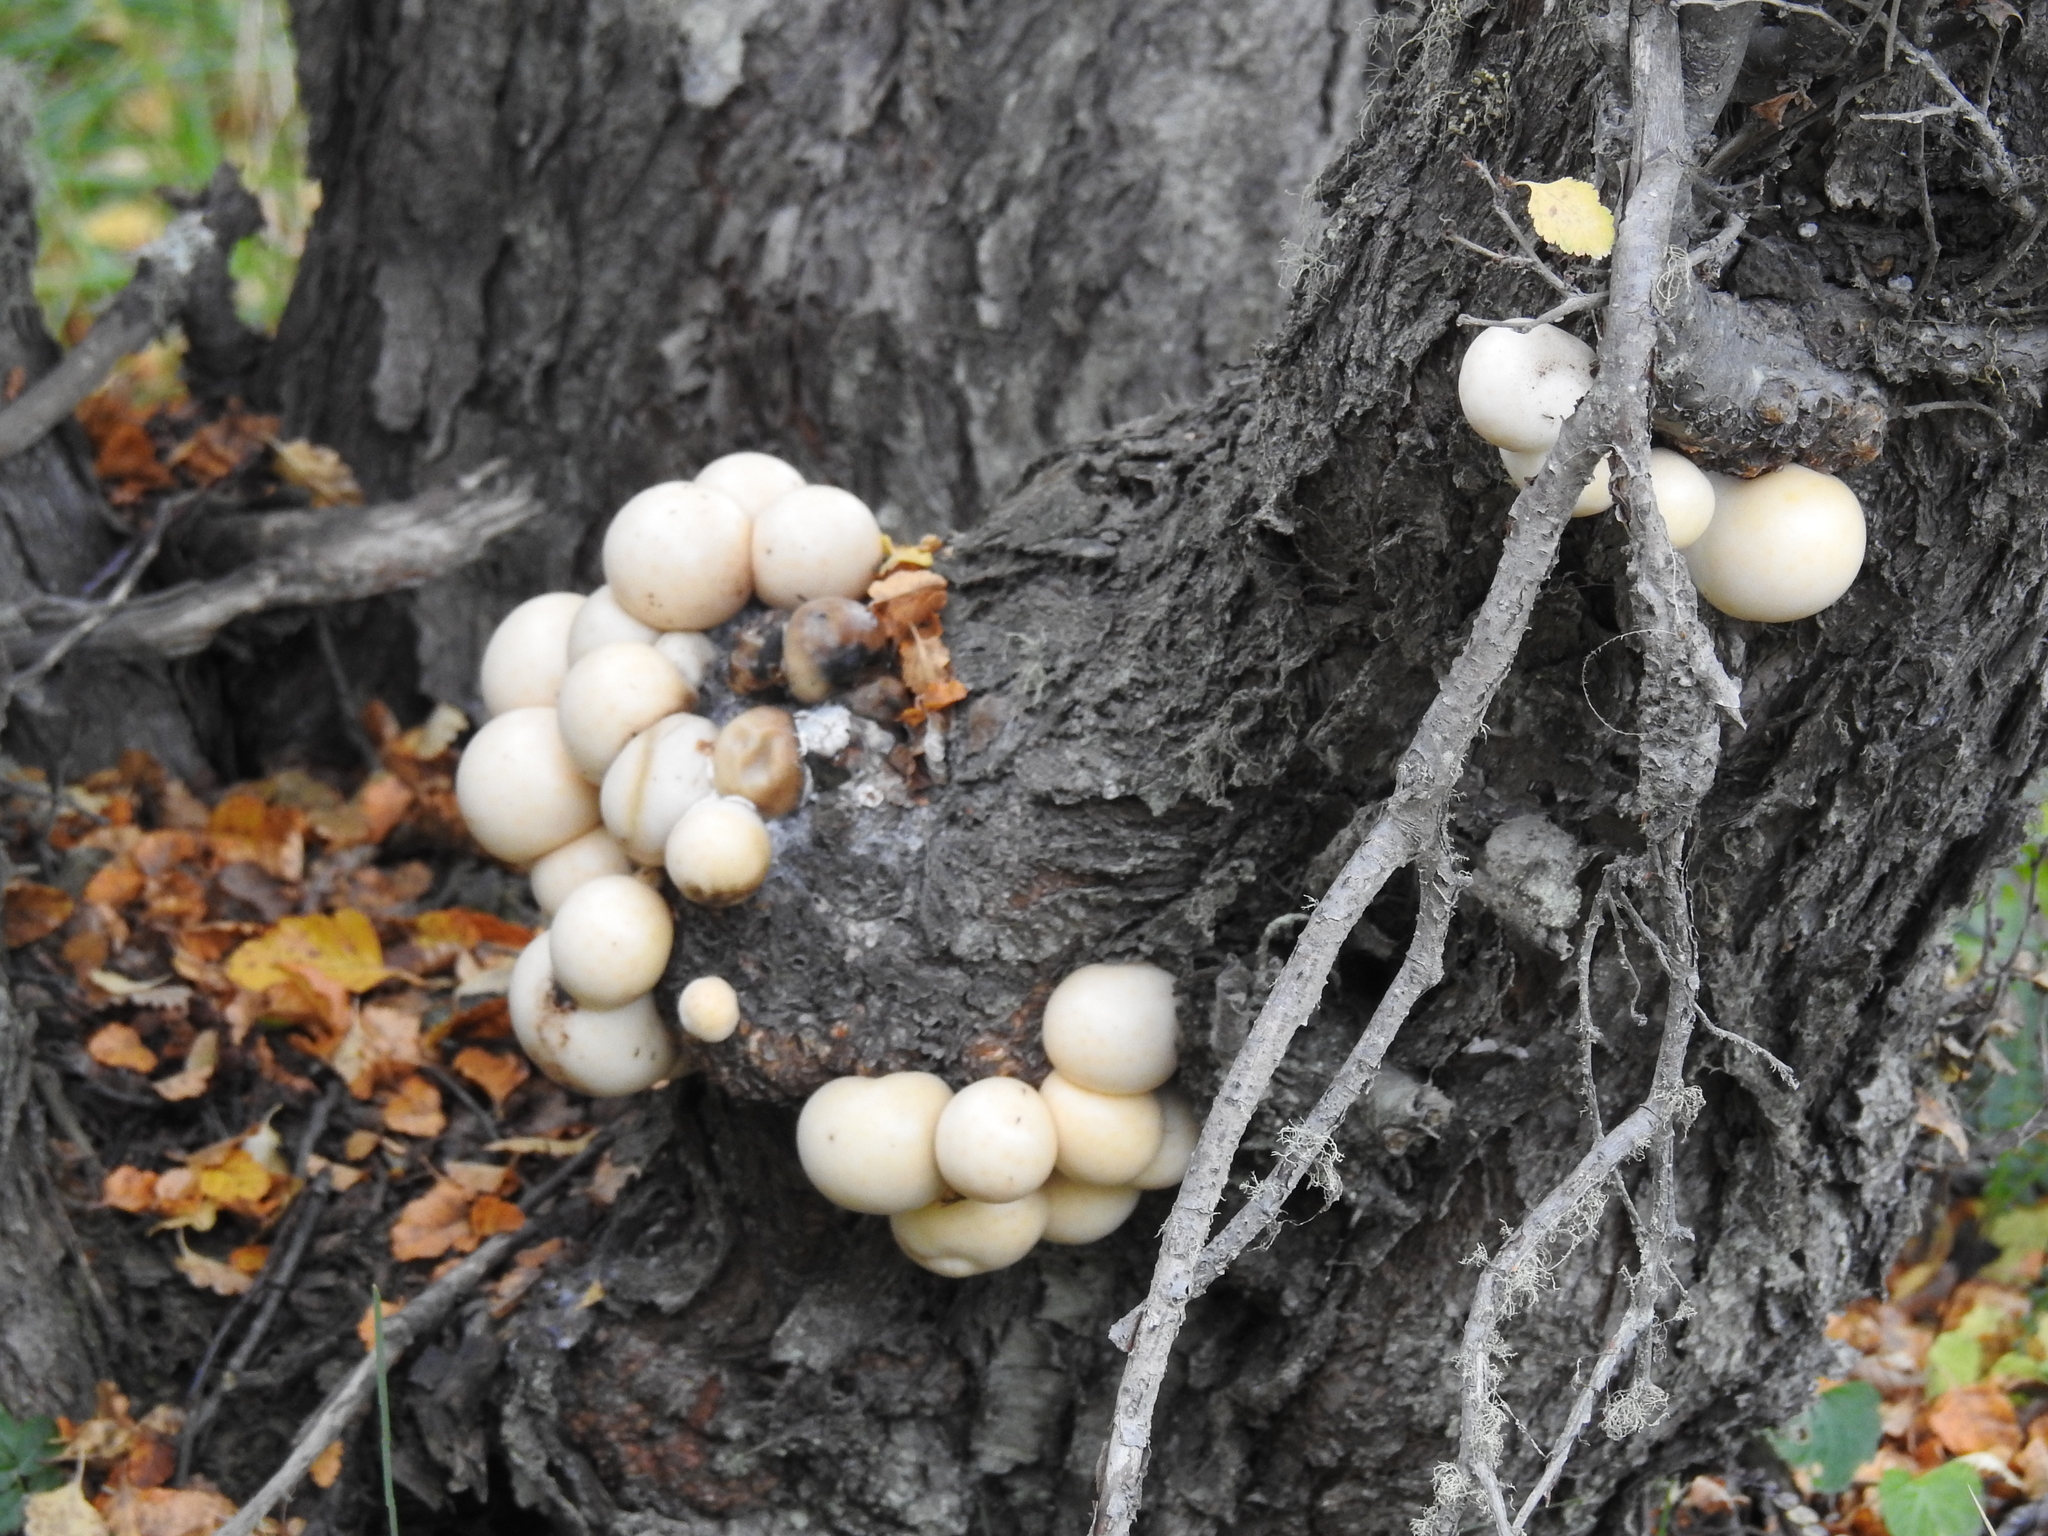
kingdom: Fungi
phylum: Ascomycota
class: Leotiomycetes
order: Cyttariales
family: Cyttariaceae
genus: Cyttaria
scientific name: Cyttaria darwinii
